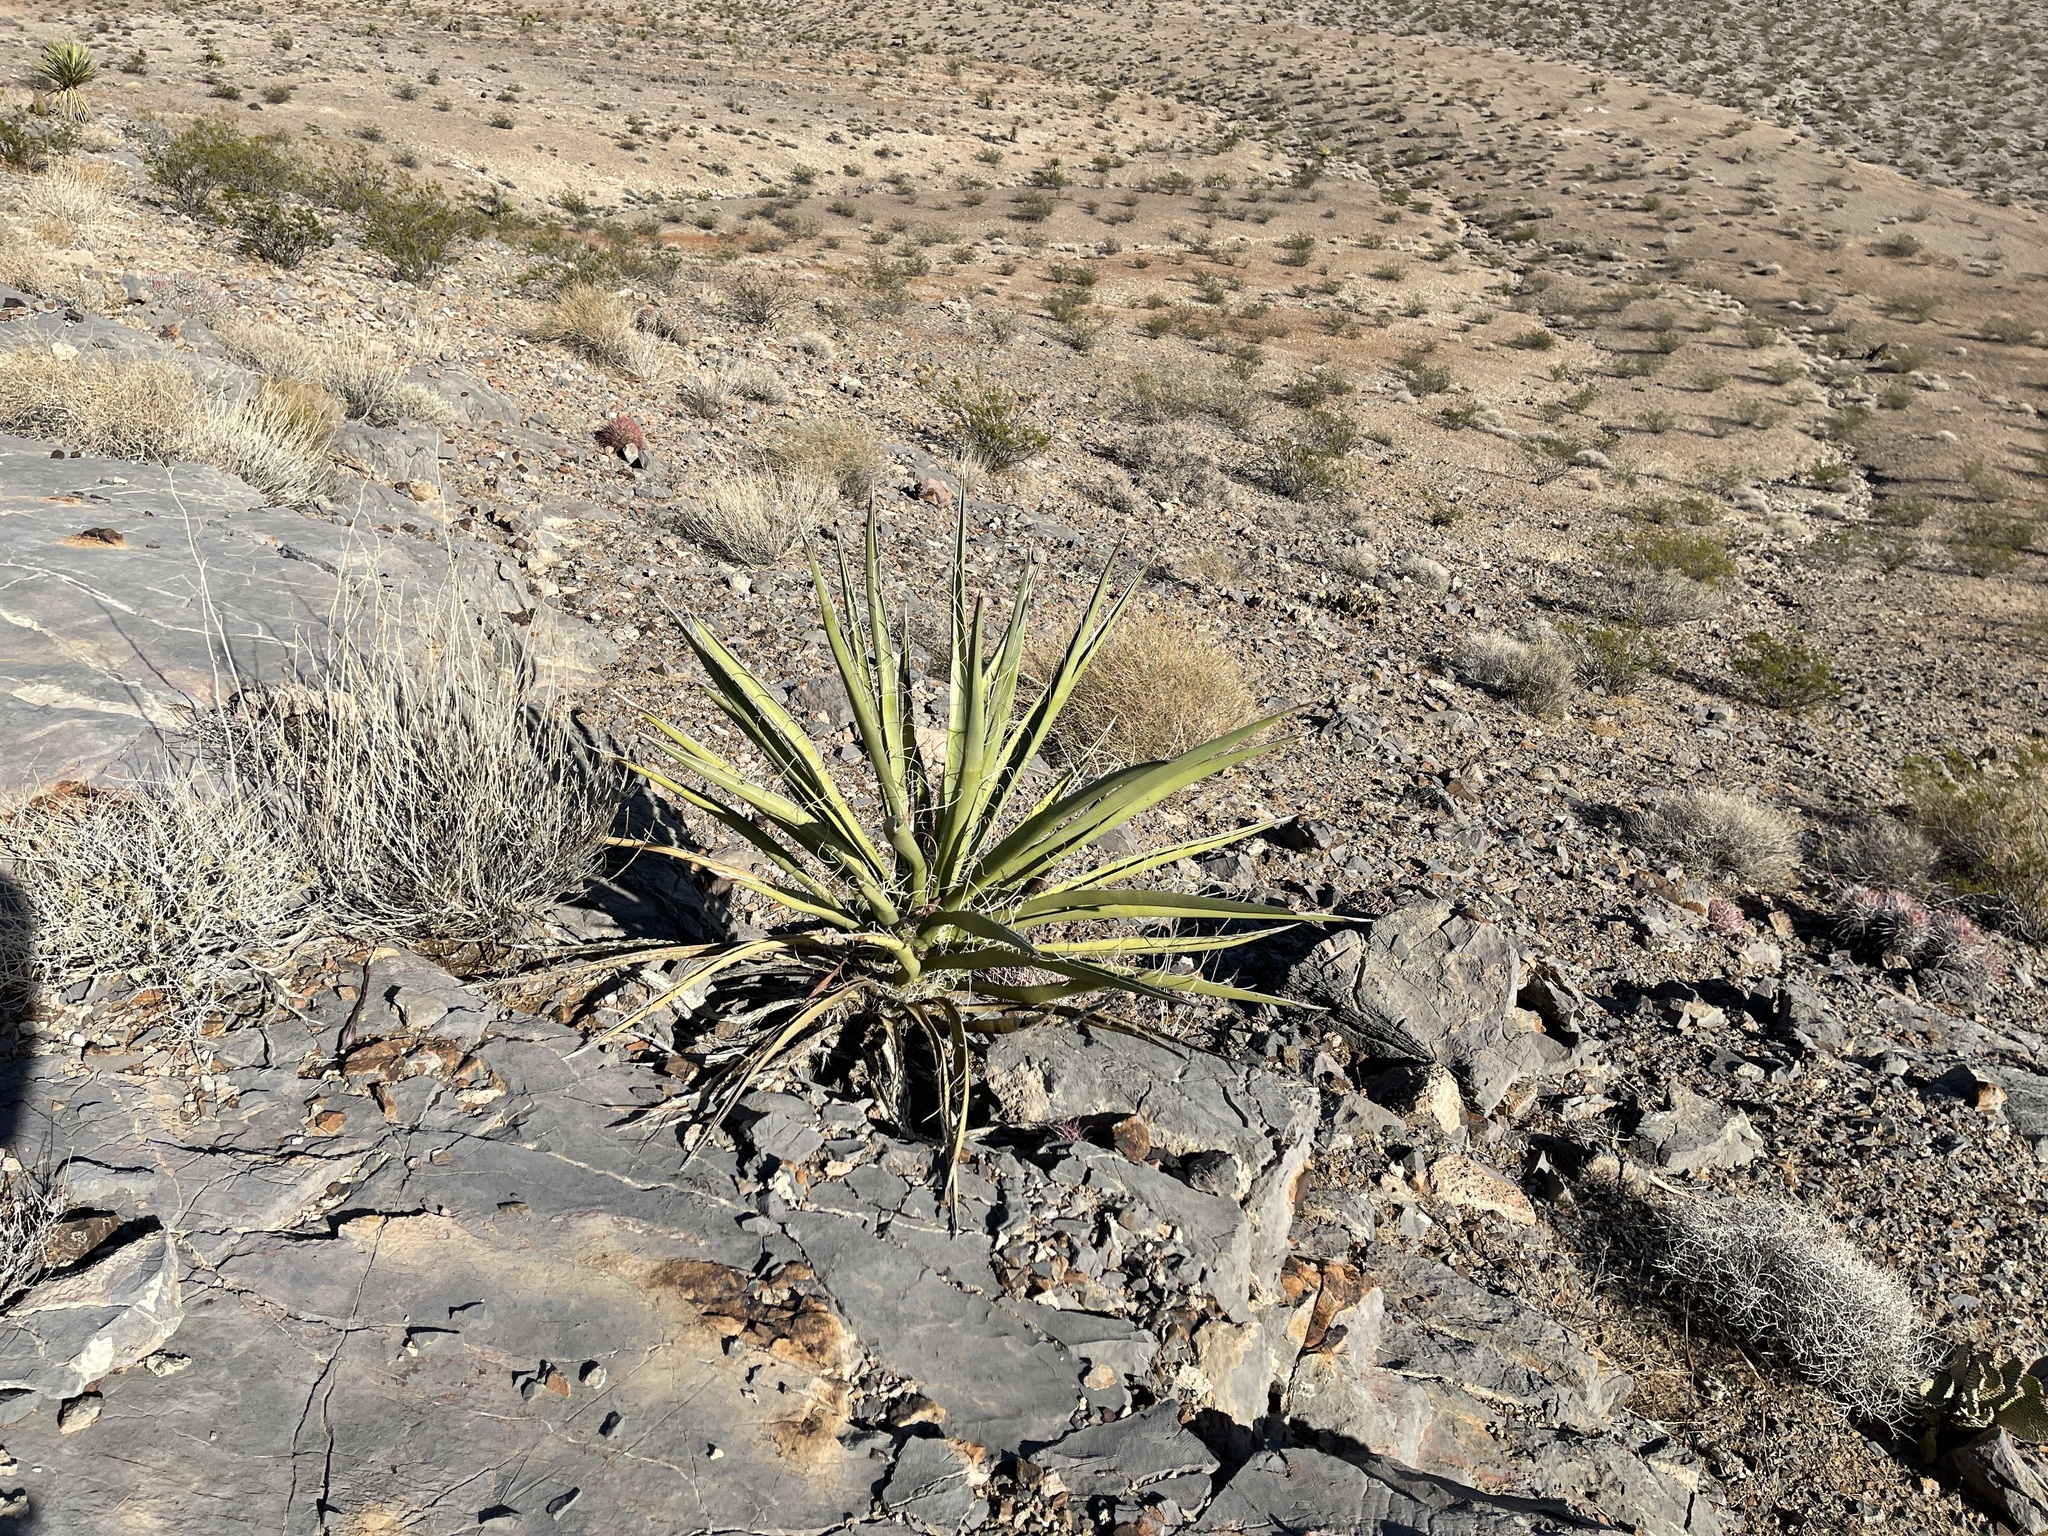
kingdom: Plantae
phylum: Tracheophyta
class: Liliopsida
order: Asparagales
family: Asparagaceae
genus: Yucca
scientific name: Yucca baccata
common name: Banana yucca
